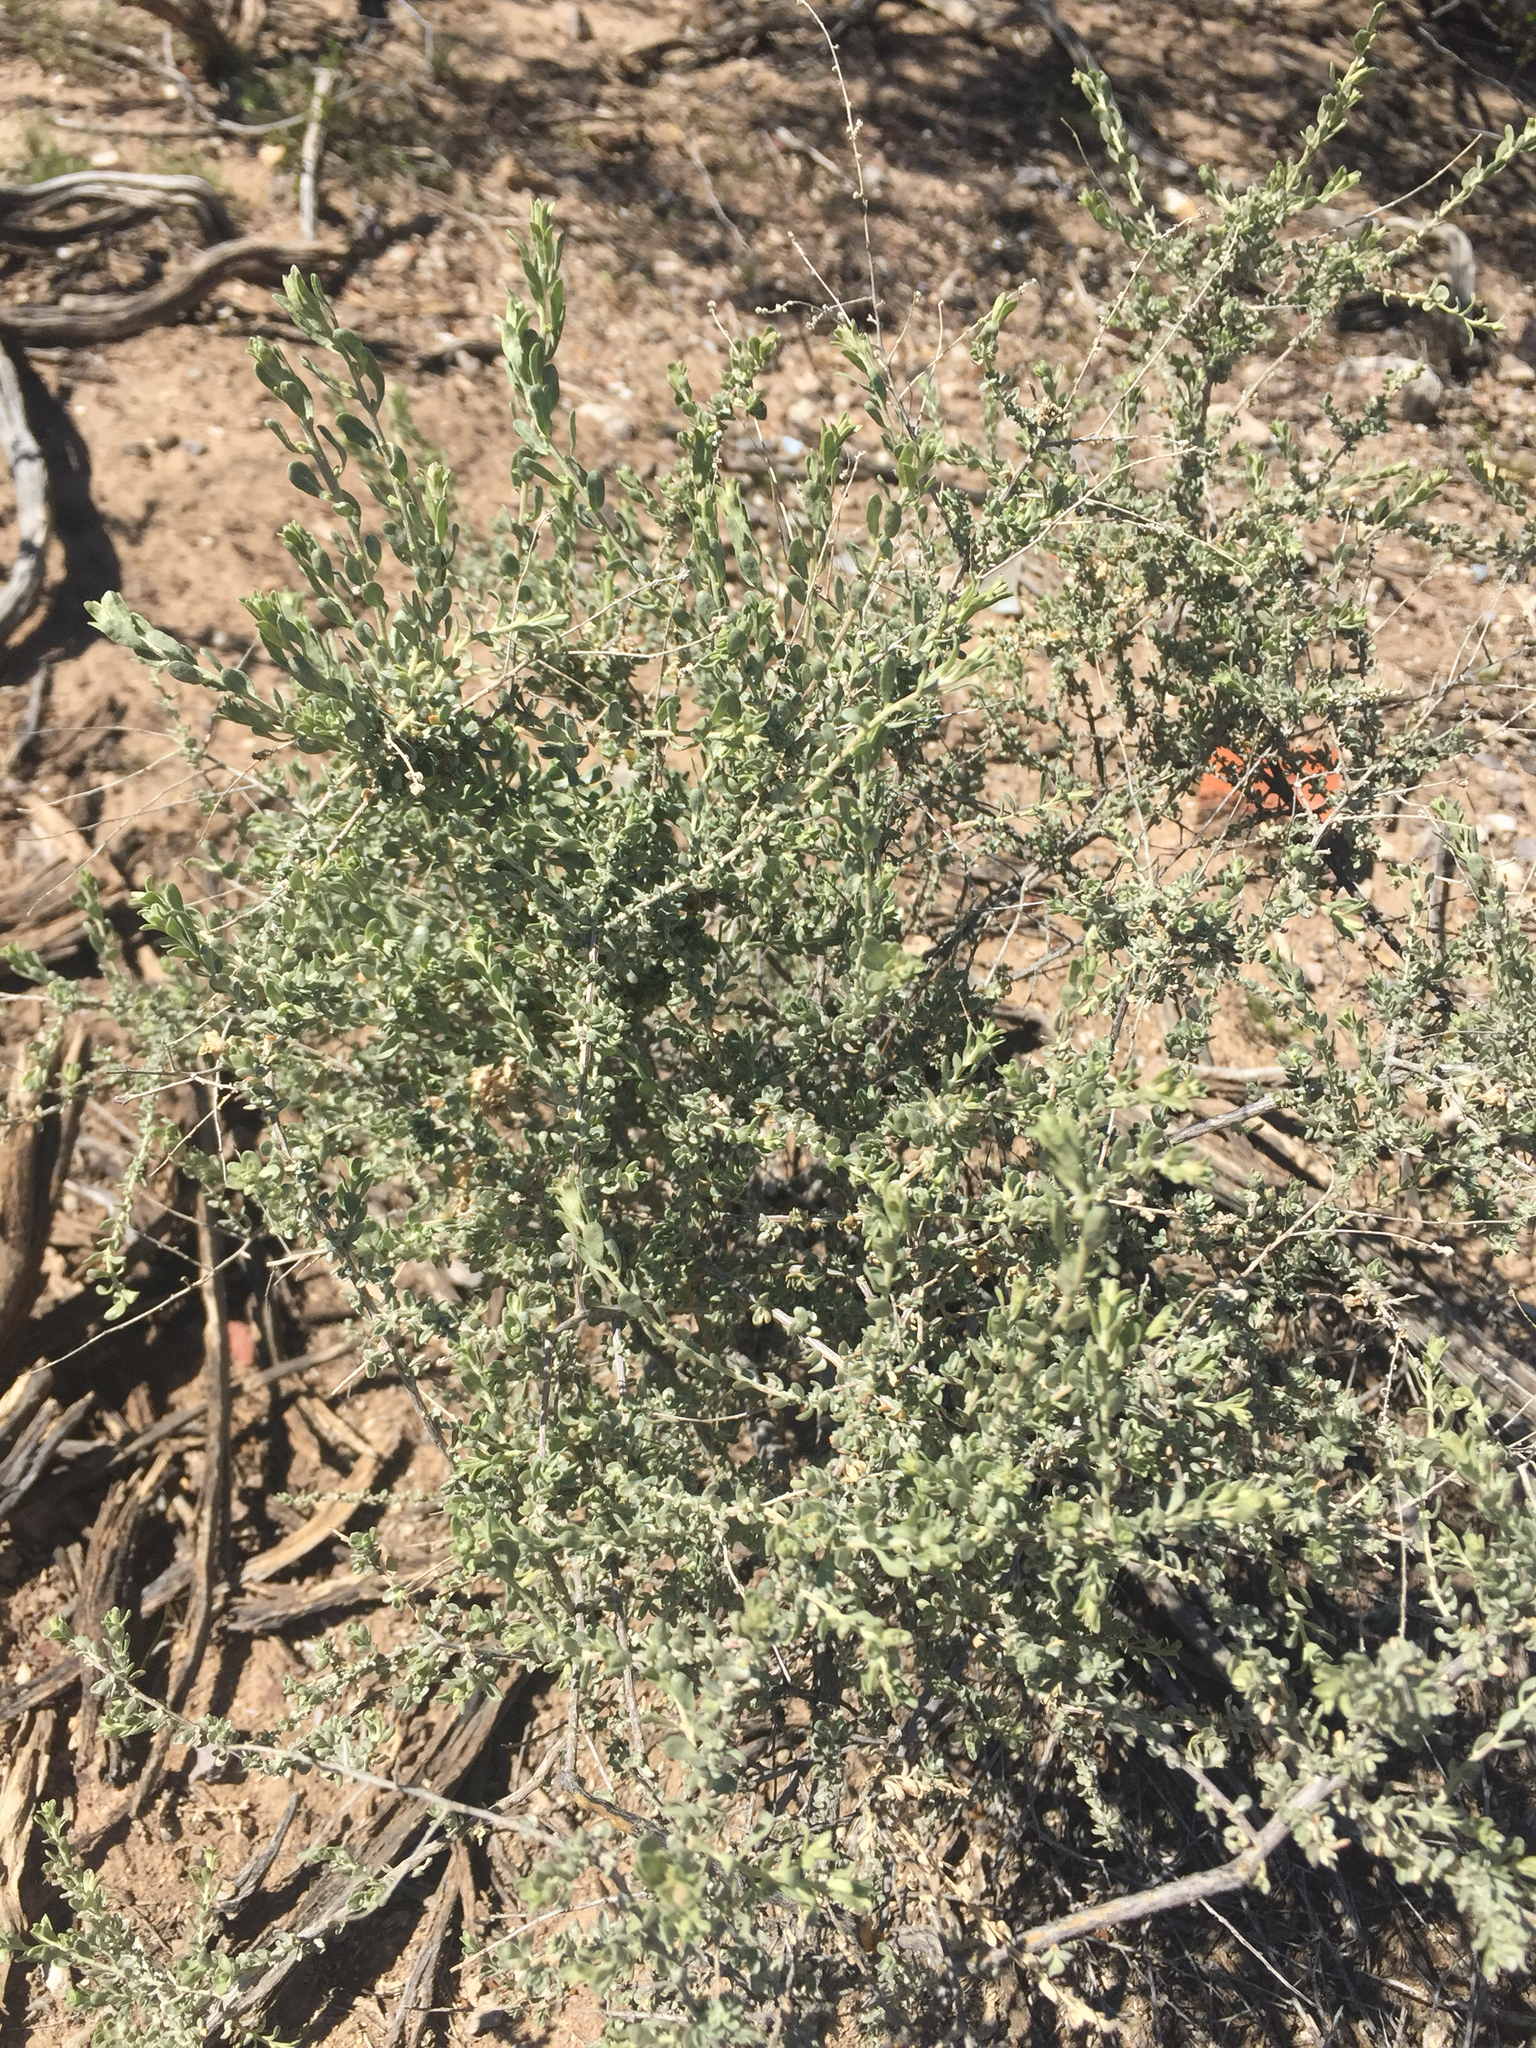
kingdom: Plantae
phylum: Tracheophyta
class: Magnoliopsida
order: Caryophyllales
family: Amaranthaceae
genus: Atriplex
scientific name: Atriplex canescens
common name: Four-wing saltbush
